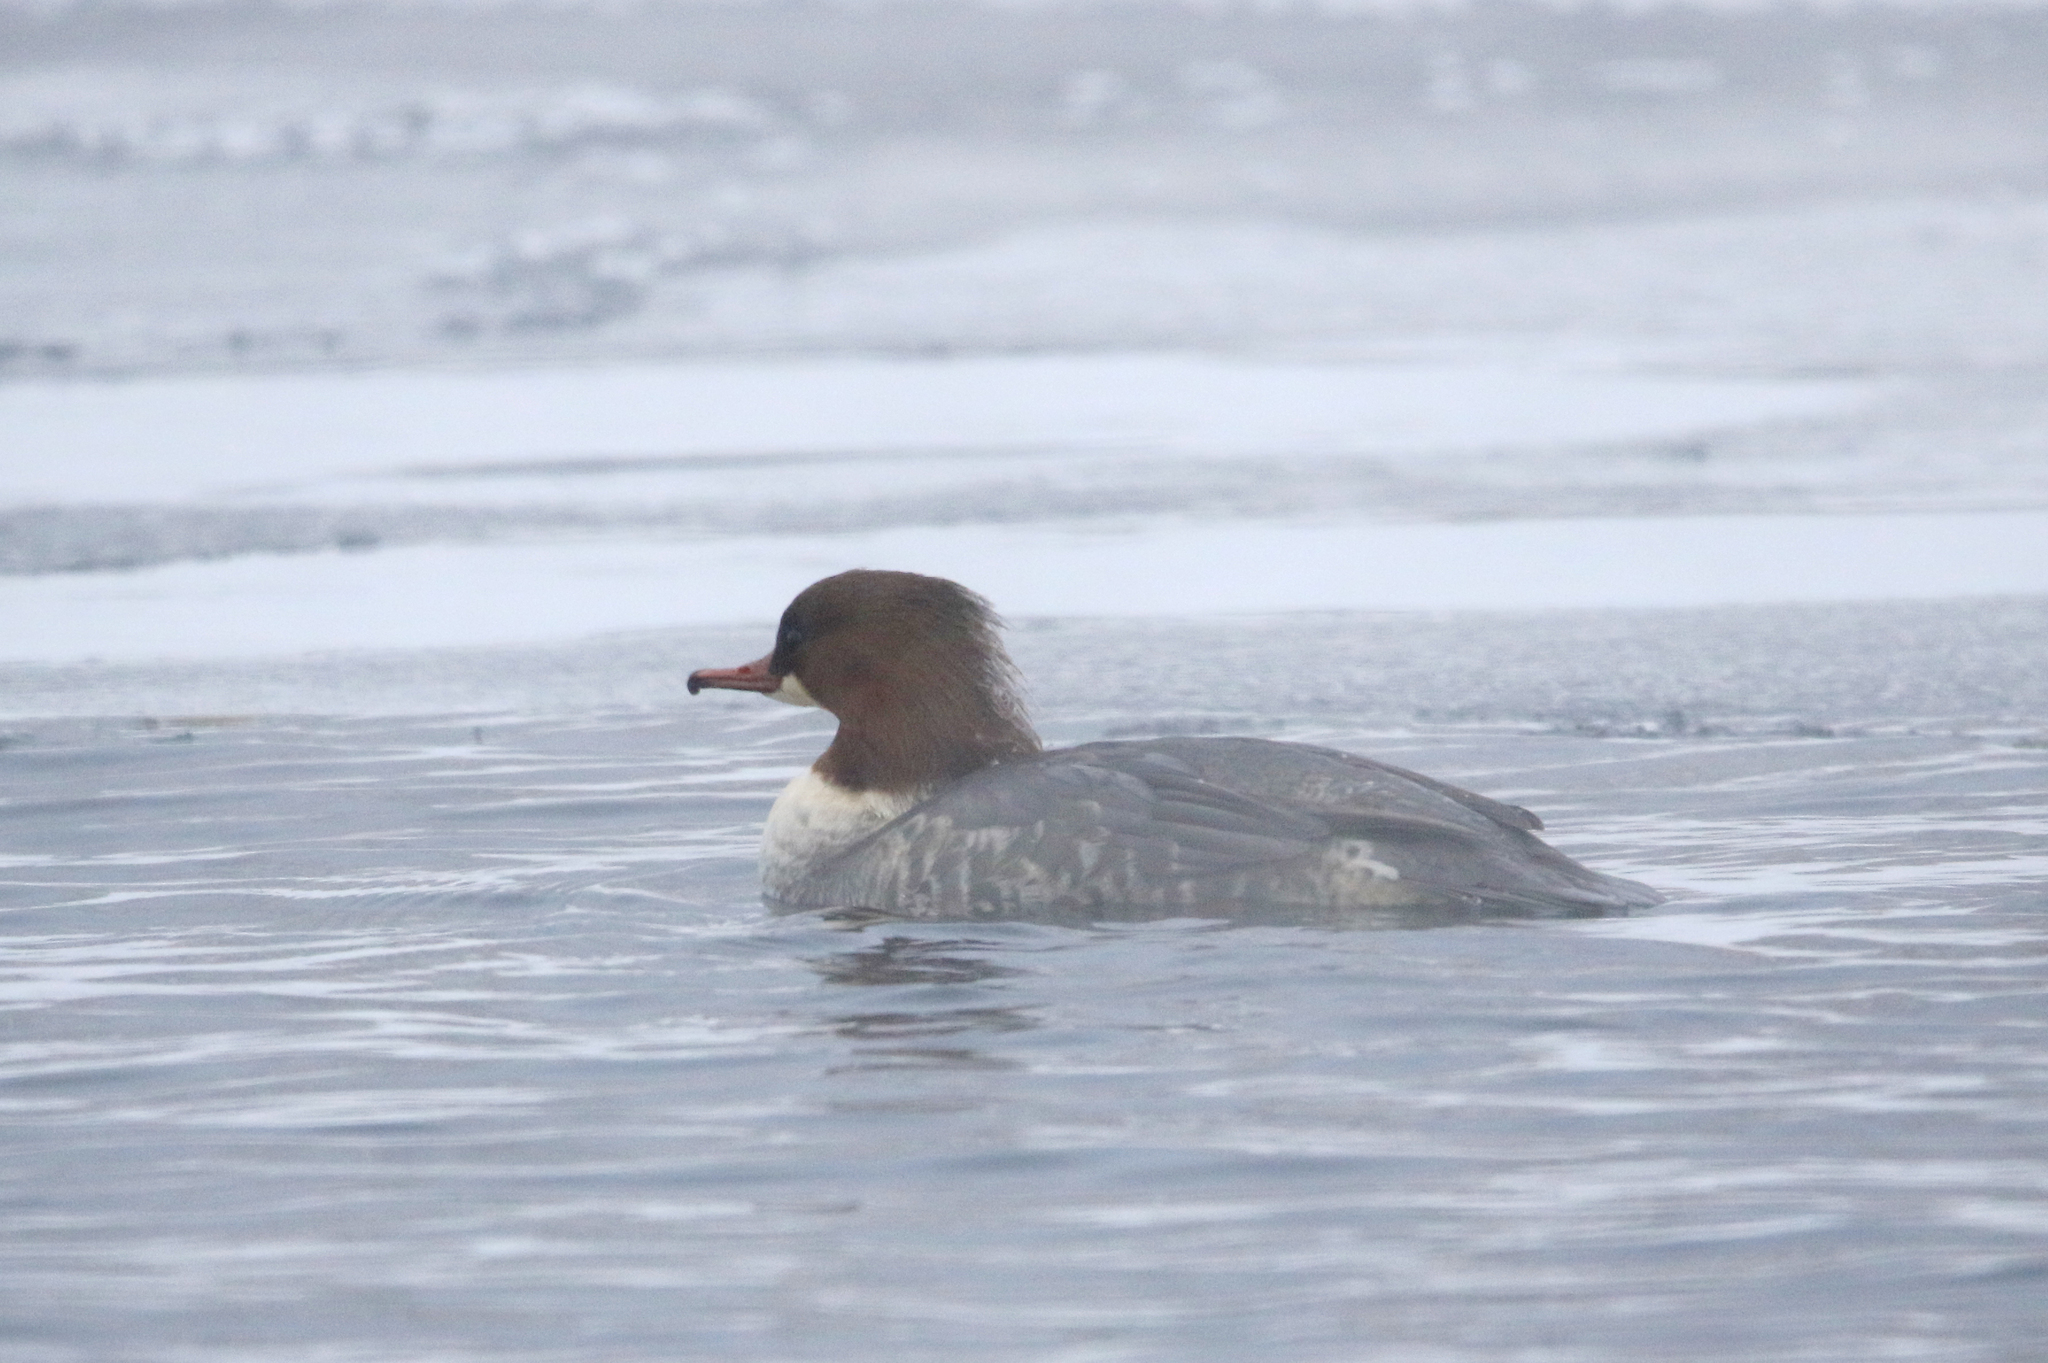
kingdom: Animalia
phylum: Chordata
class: Aves
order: Anseriformes
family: Anatidae
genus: Mergus
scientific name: Mergus merganser
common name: Common merganser
